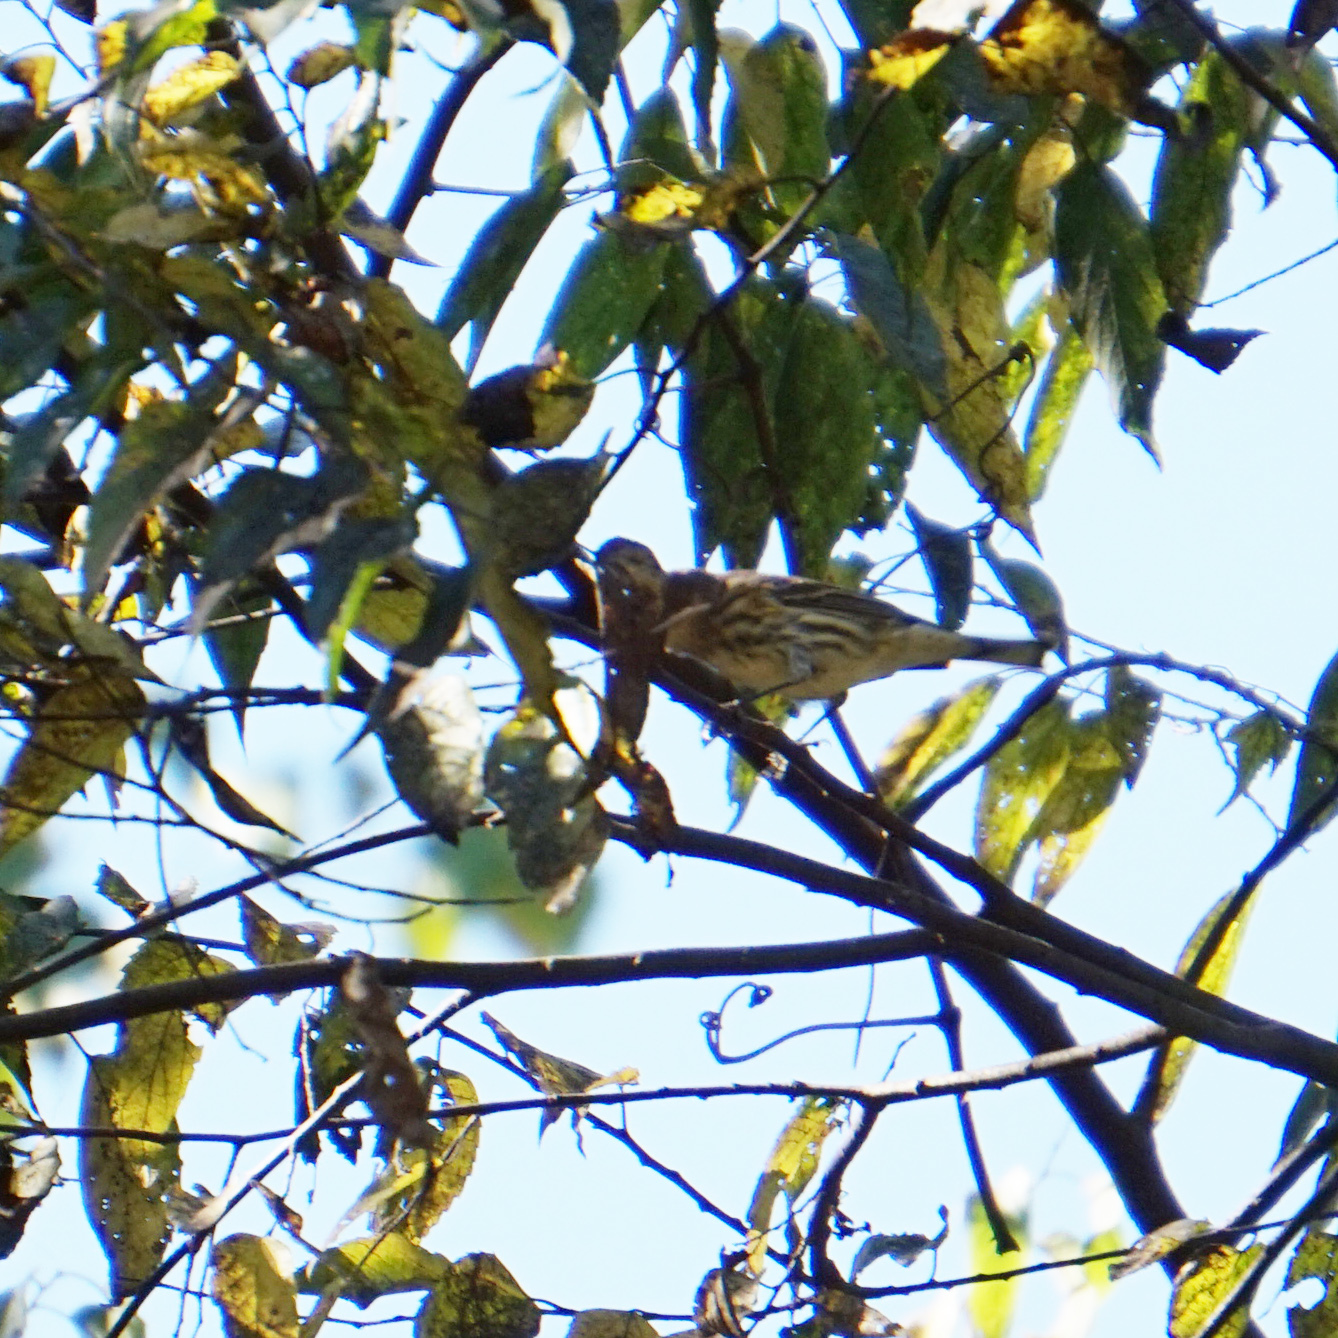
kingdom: Animalia
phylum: Chordata
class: Aves
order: Passeriformes
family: Parulidae
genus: Setophaga
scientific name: Setophaga coronata
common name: Myrtle warbler
